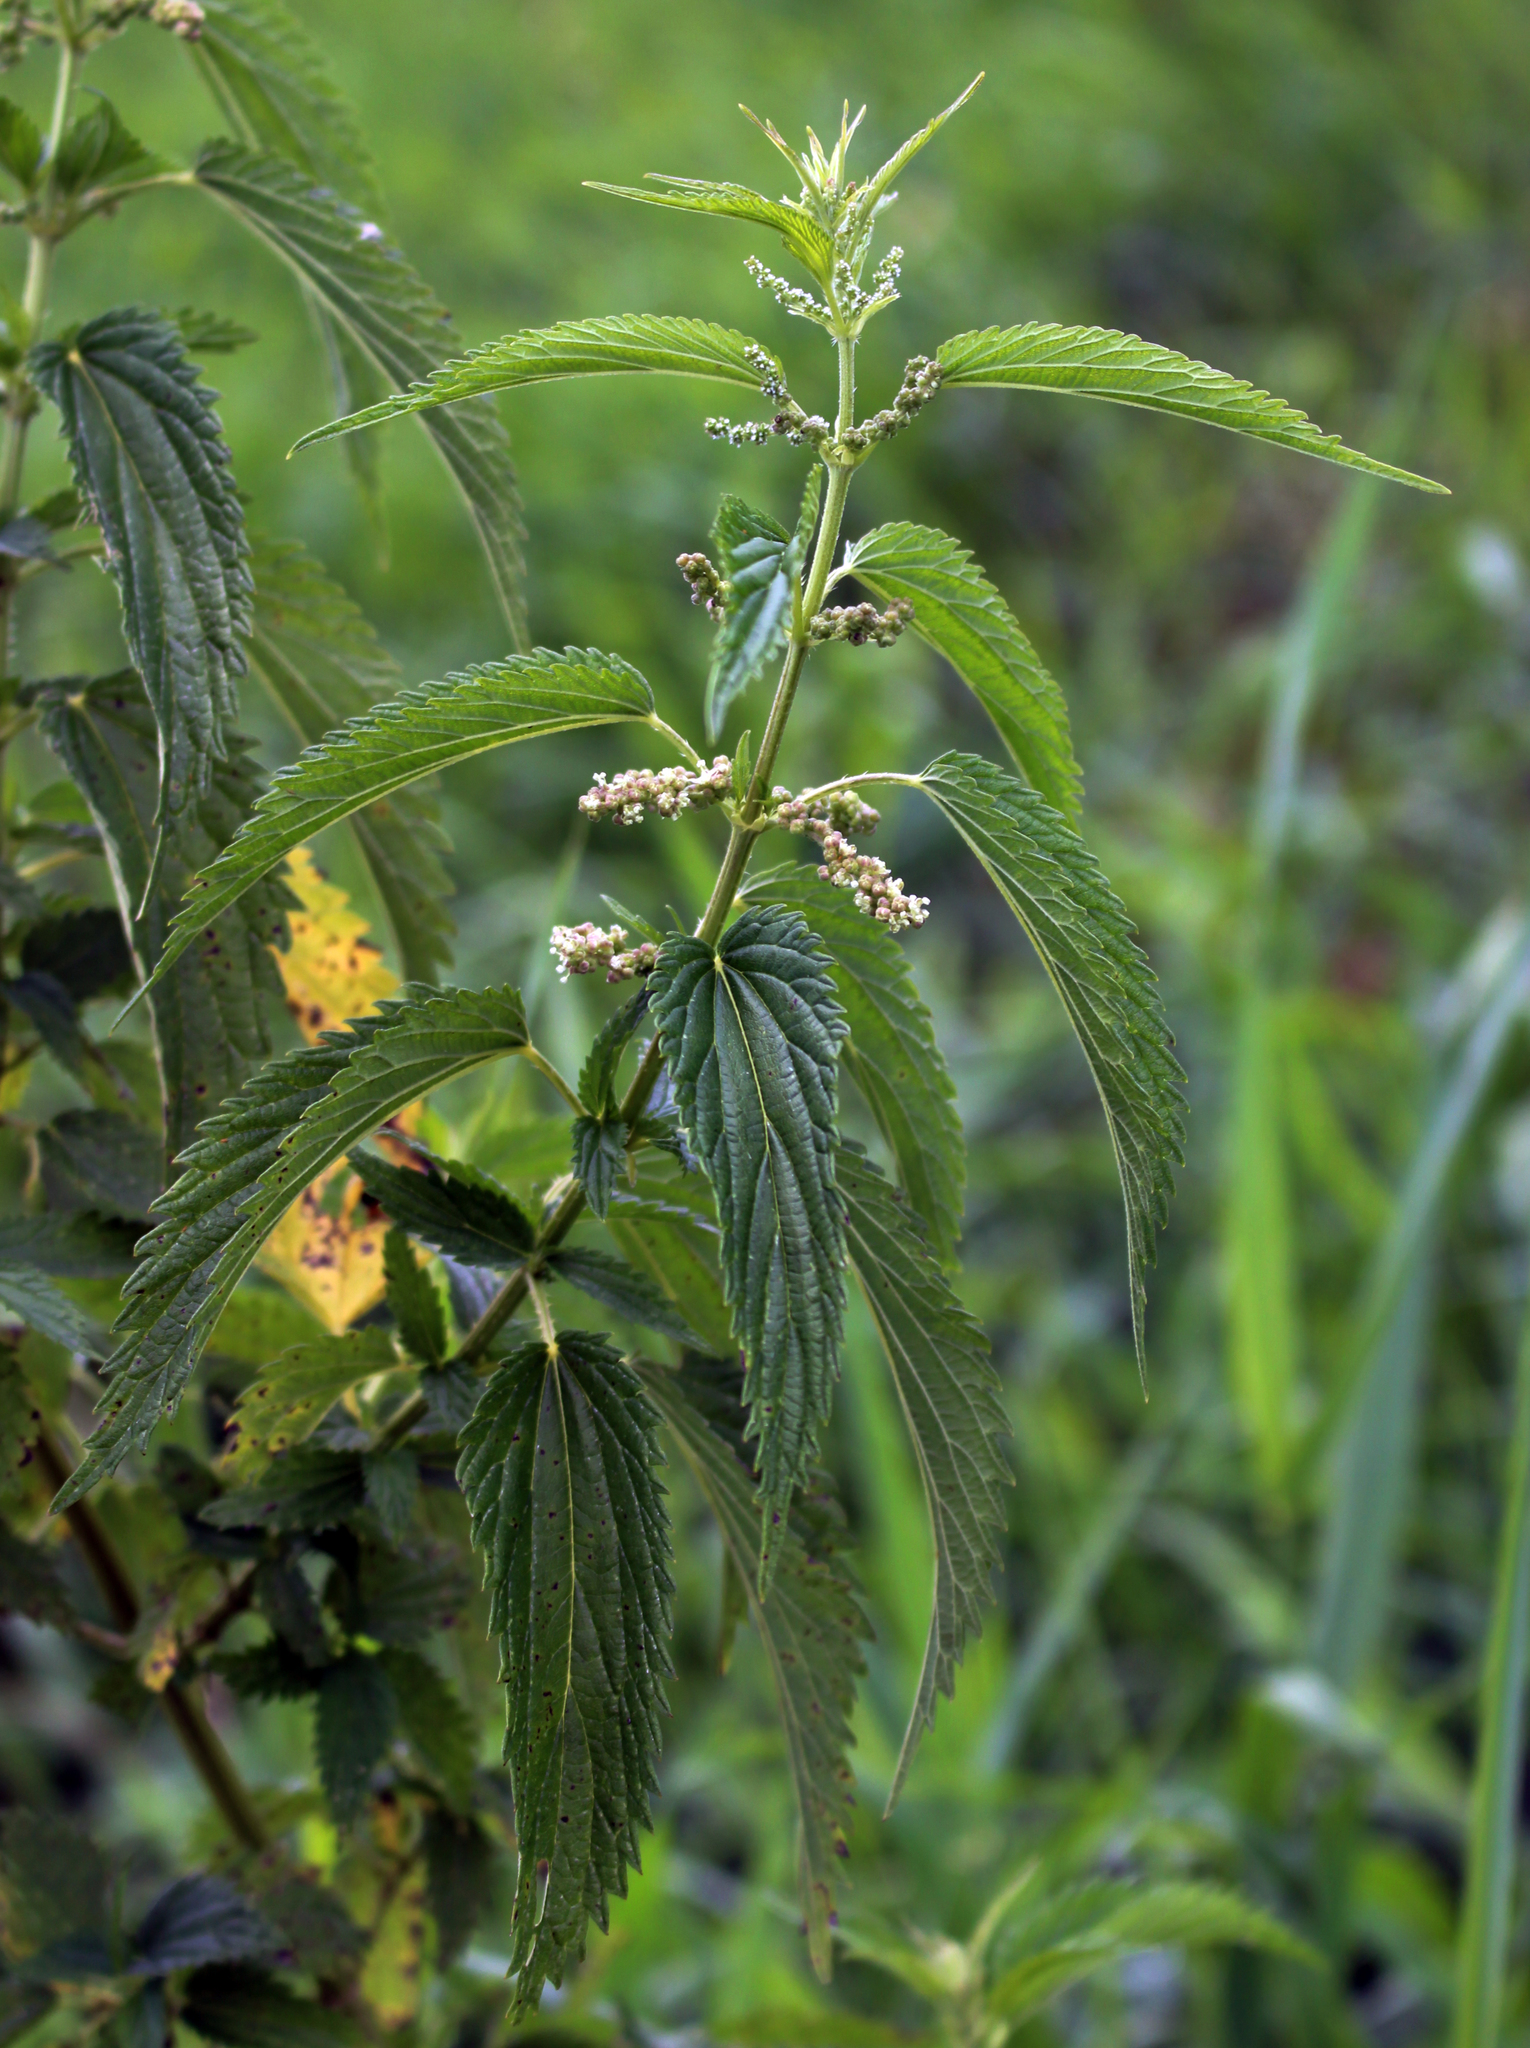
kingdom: Plantae
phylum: Tracheophyta
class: Magnoliopsida
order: Rosales
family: Urticaceae
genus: Urtica
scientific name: Urtica dioica
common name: Common nettle
